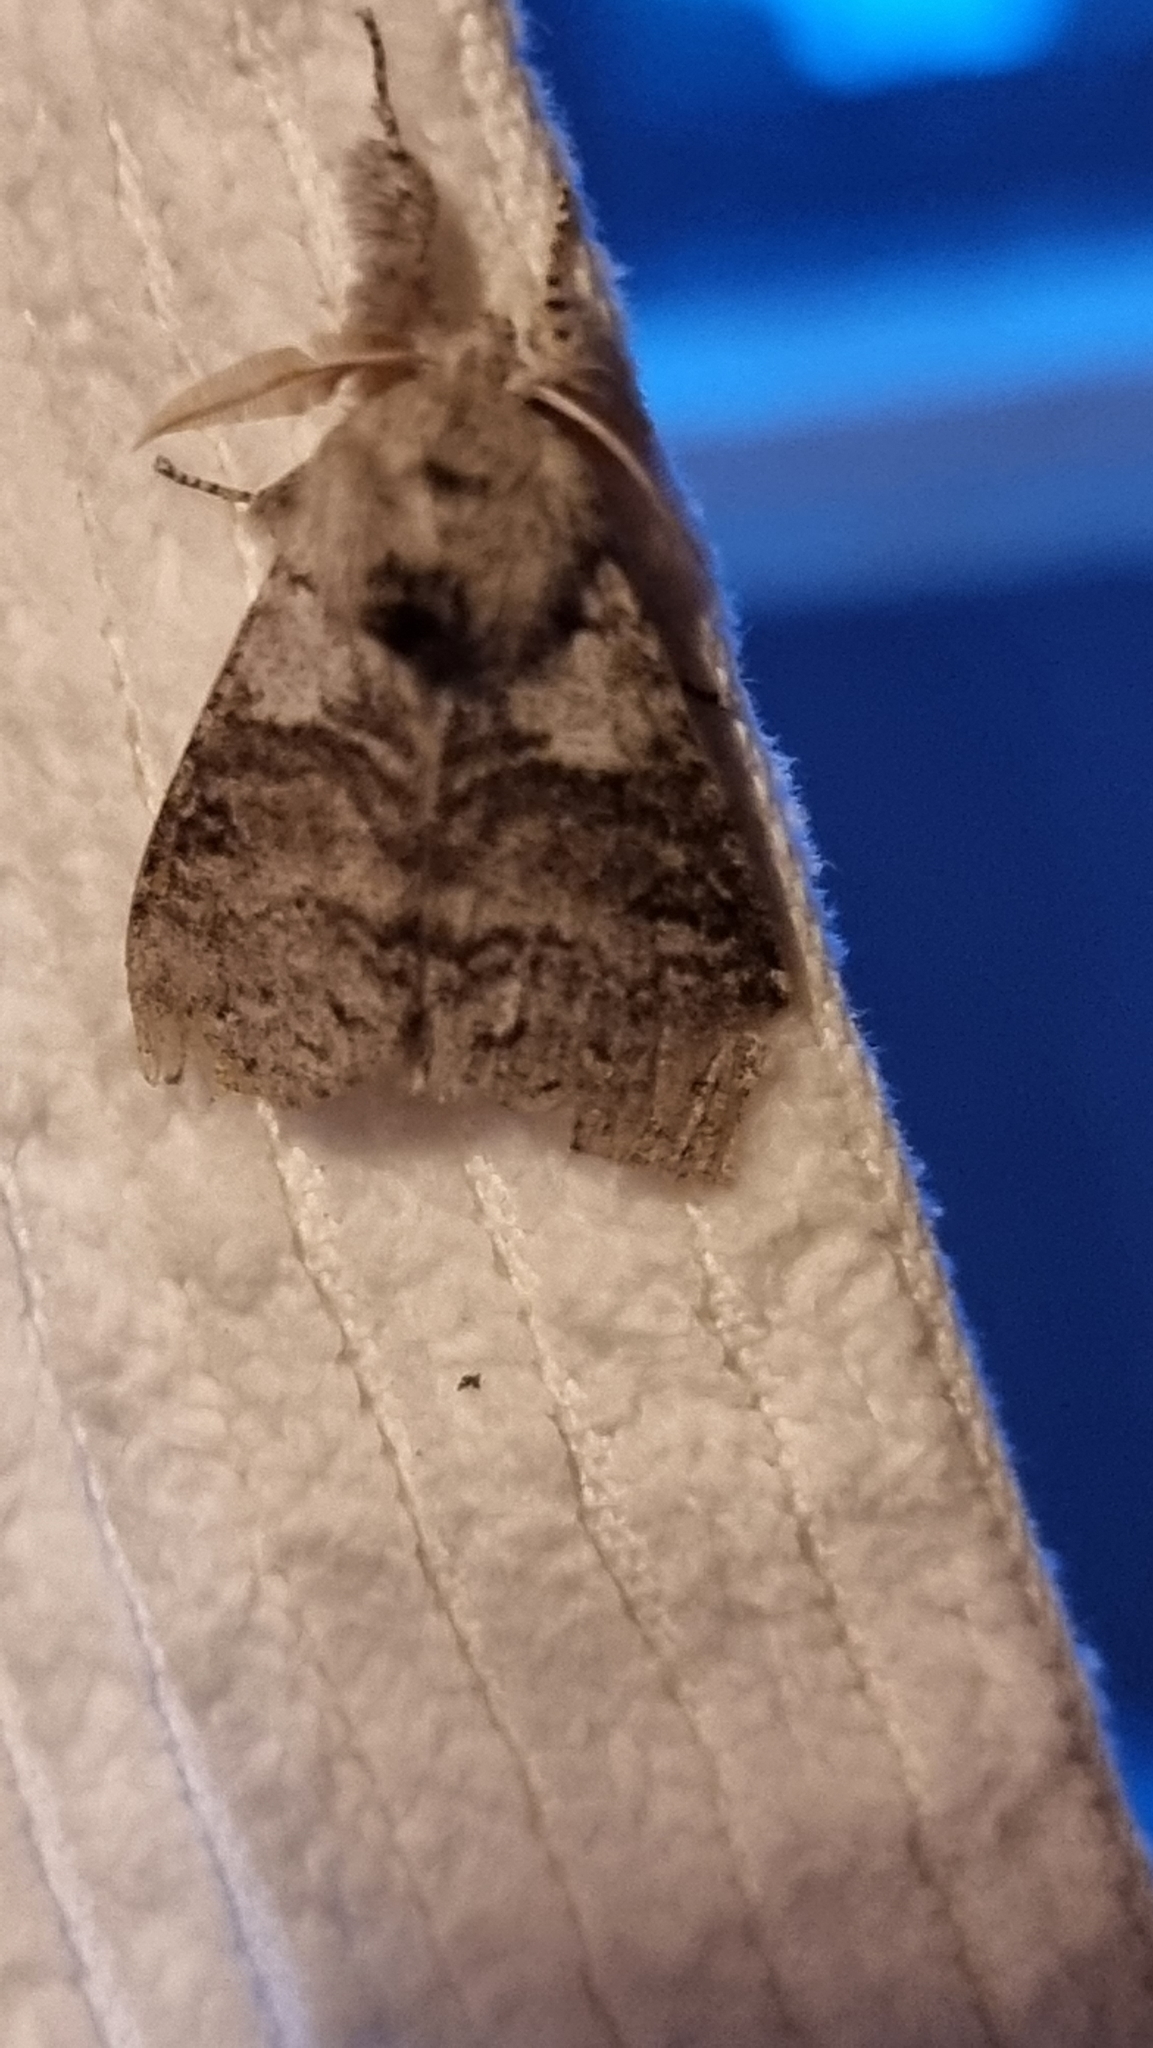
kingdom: Animalia
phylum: Arthropoda
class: Insecta
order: Lepidoptera
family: Erebidae
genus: Calliteara
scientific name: Calliteara pudibunda
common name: Pale tussock
